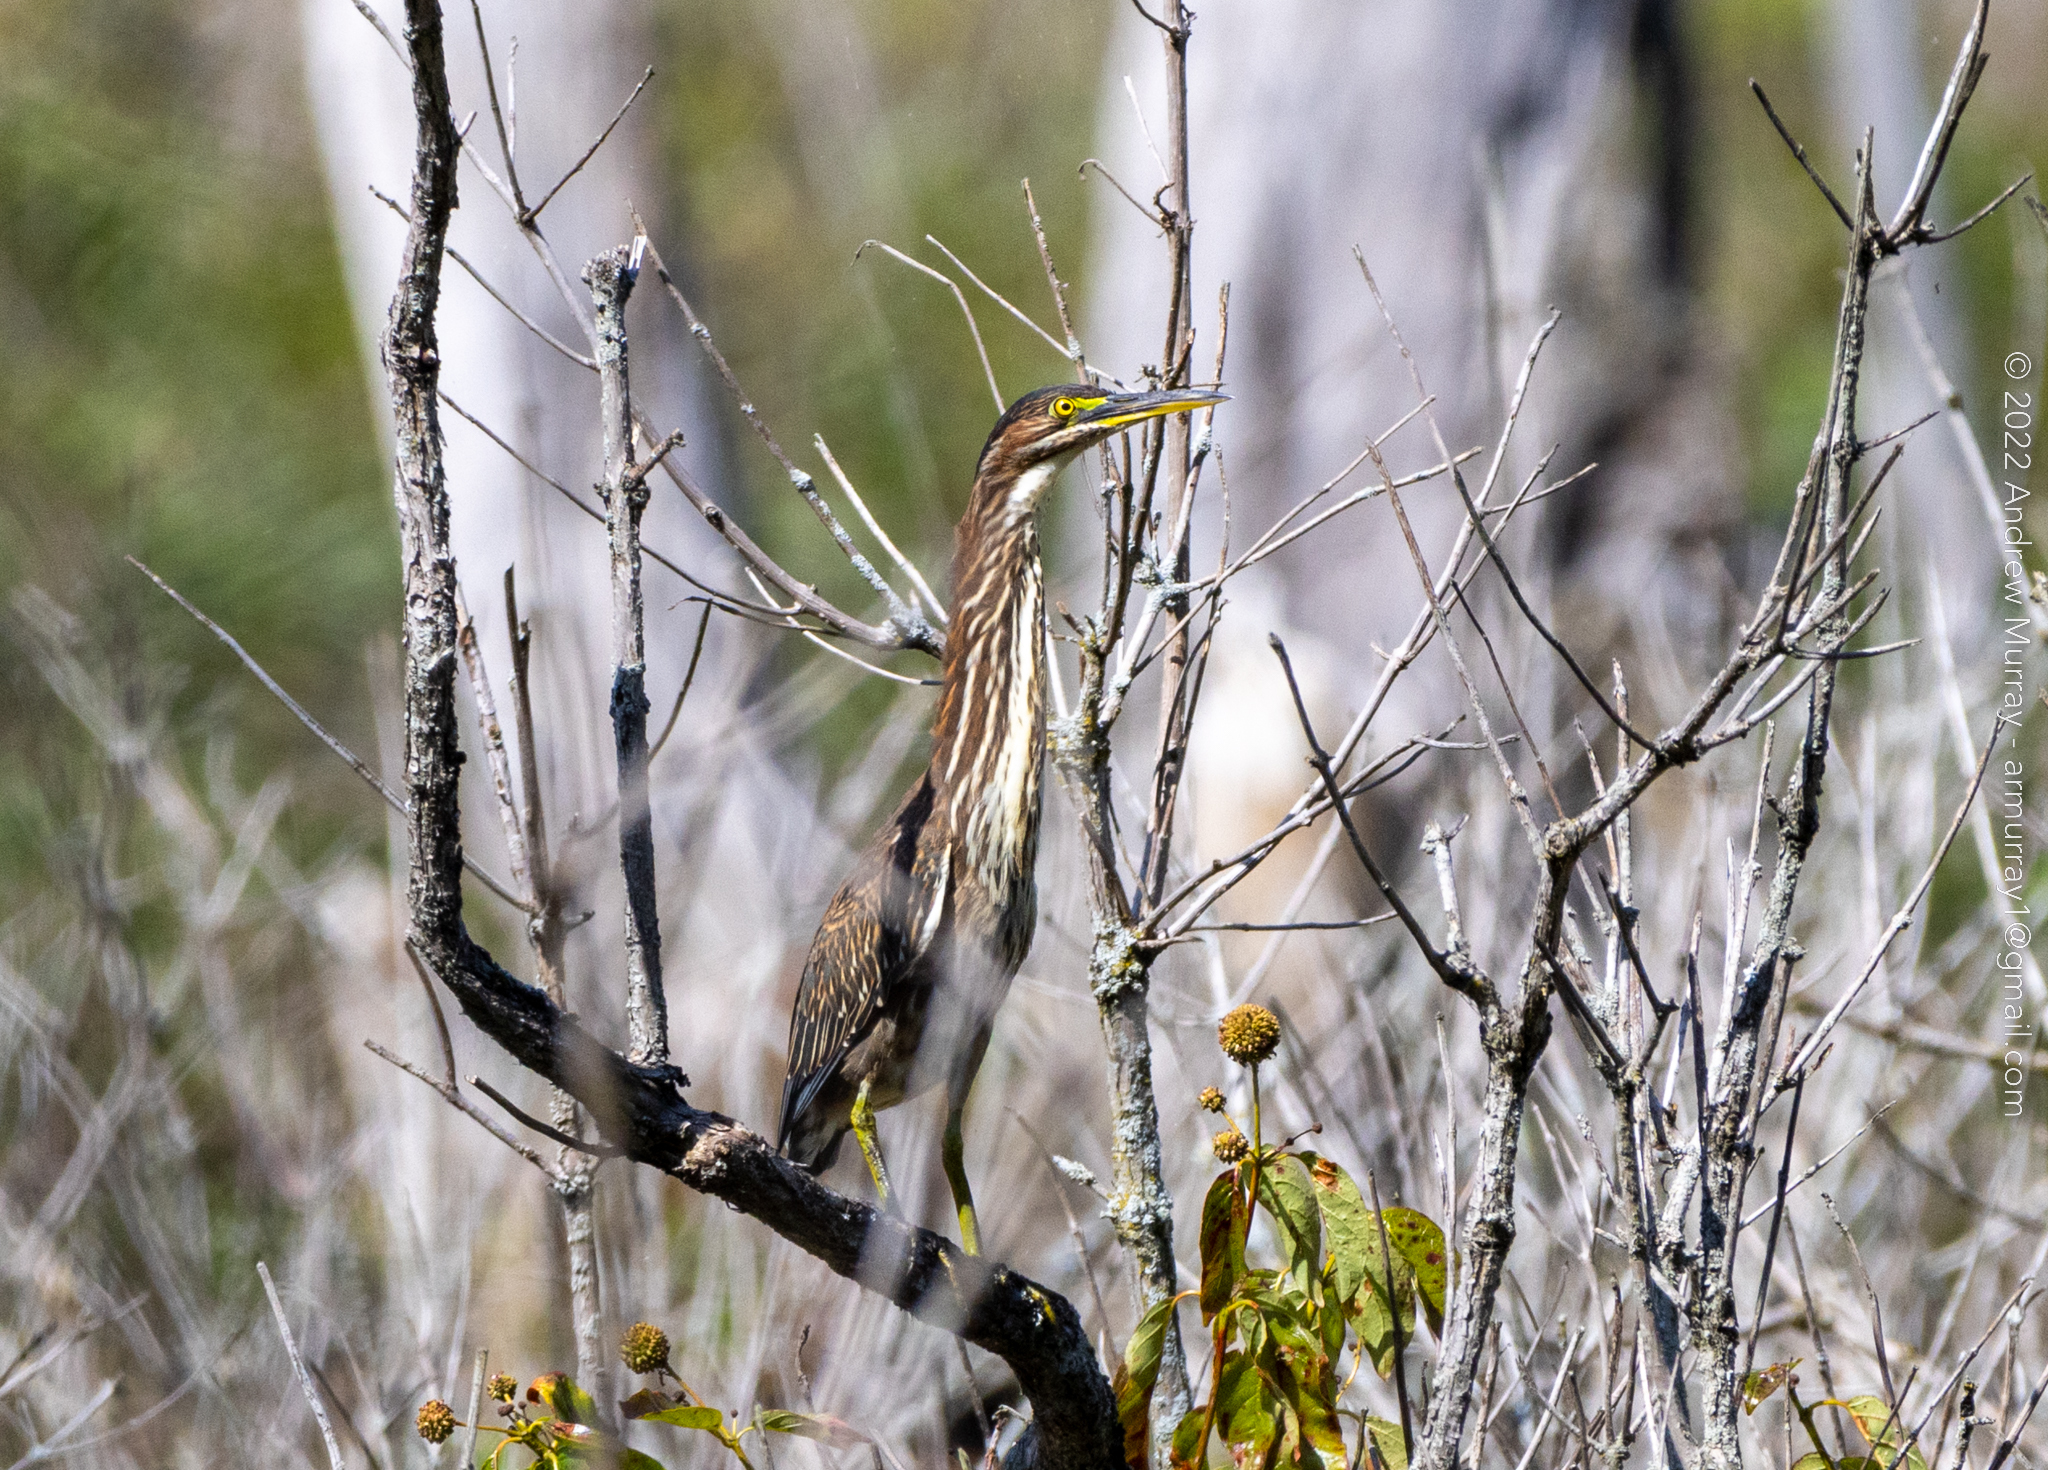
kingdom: Animalia
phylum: Chordata
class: Aves
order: Pelecaniformes
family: Ardeidae
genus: Butorides
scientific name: Butorides virescens
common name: Green heron
